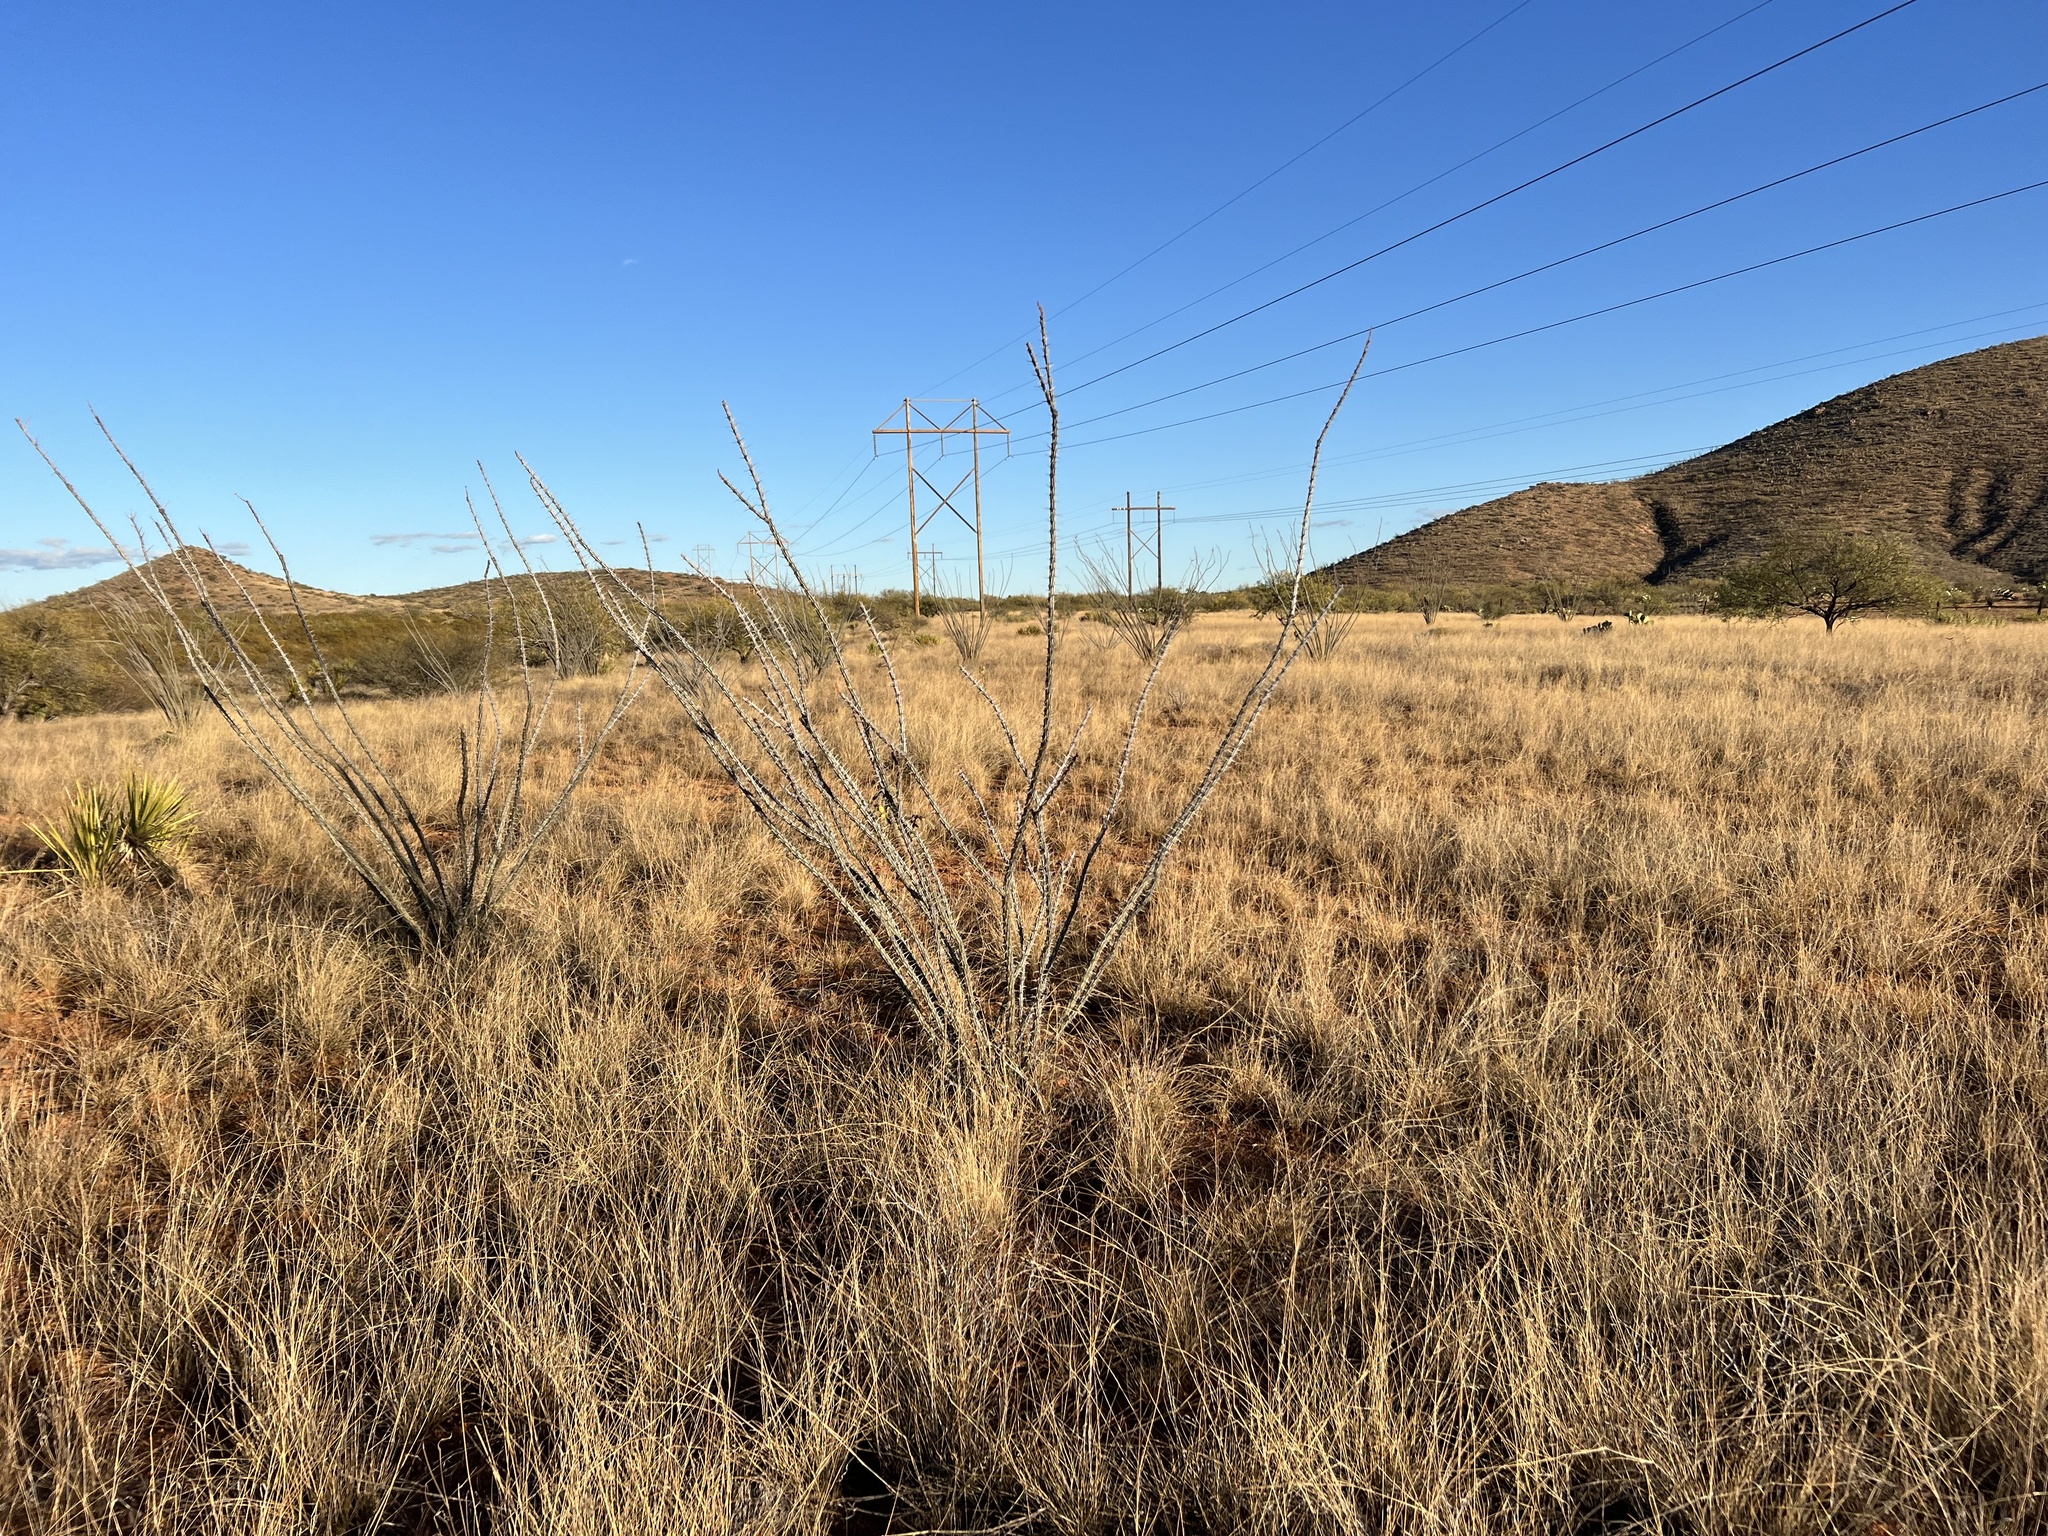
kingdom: Plantae
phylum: Tracheophyta
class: Magnoliopsida
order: Ericales
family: Fouquieriaceae
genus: Fouquieria
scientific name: Fouquieria splendens
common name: Vine-cactus
